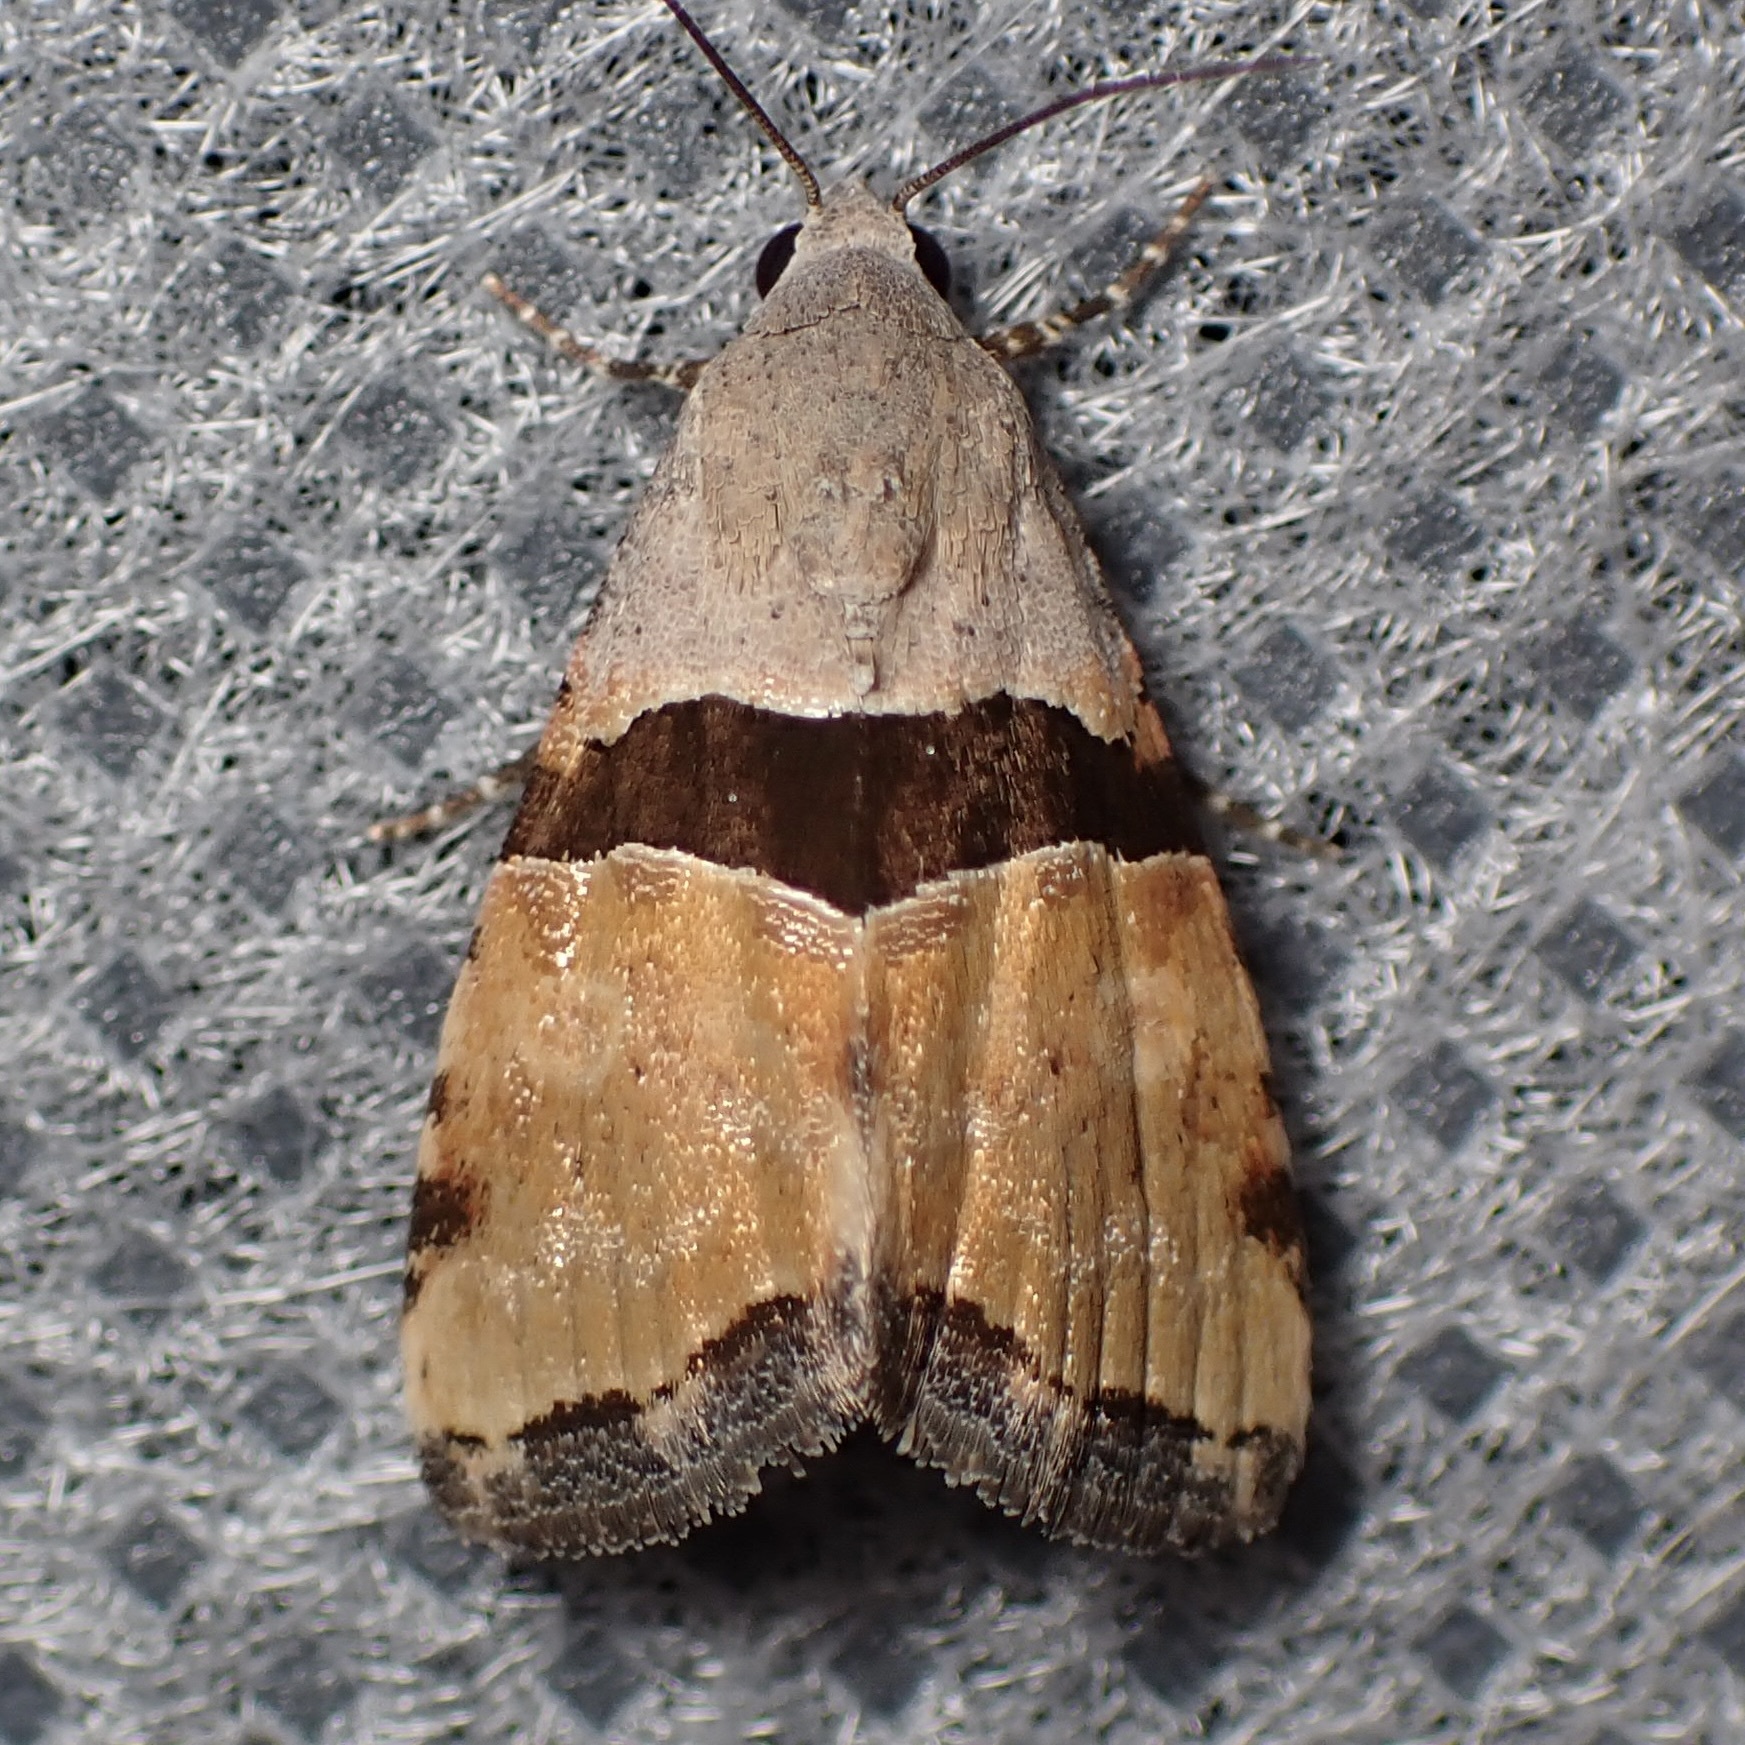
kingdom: Animalia
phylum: Arthropoda
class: Insecta
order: Lepidoptera
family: Noctuidae
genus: Cobubatha
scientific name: Cobubatha lixiva
